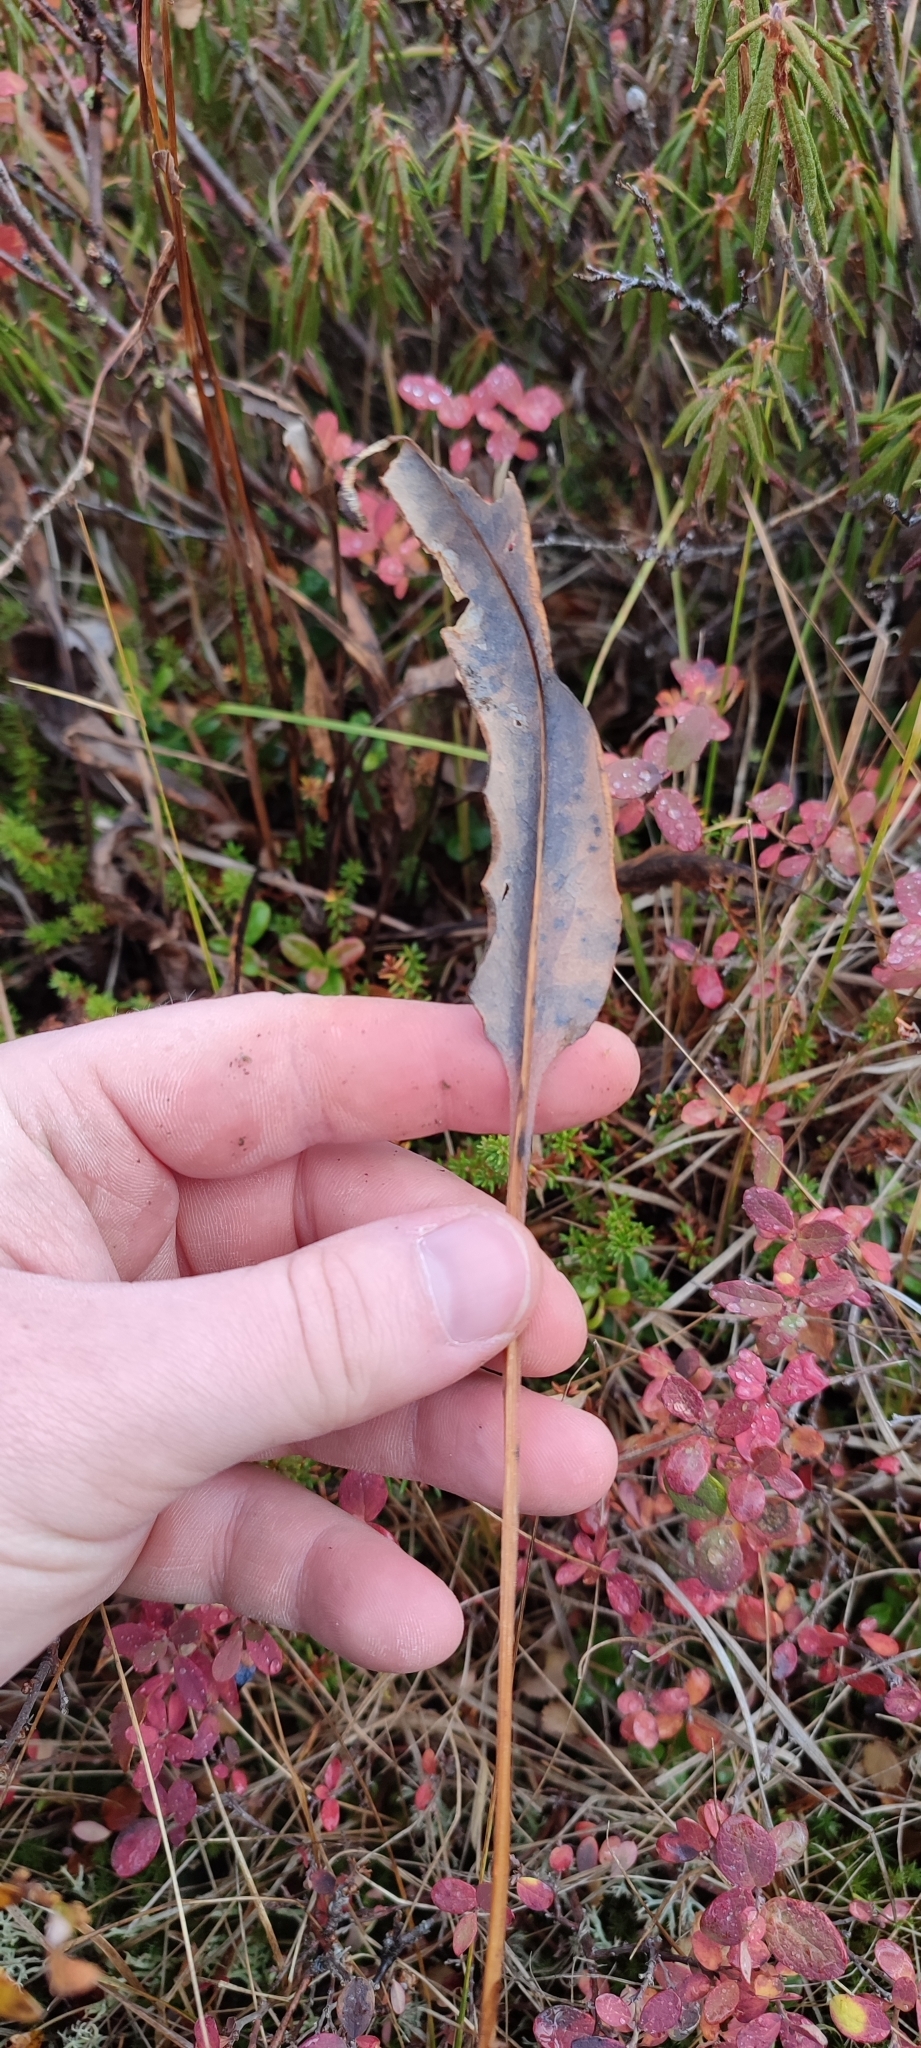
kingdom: Plantae
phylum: Tracheophyta
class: Magnoliopsida
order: Caryophyllales
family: Polygonaceae
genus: Bistorta
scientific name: Bistorta officinalis
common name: Common bistort
